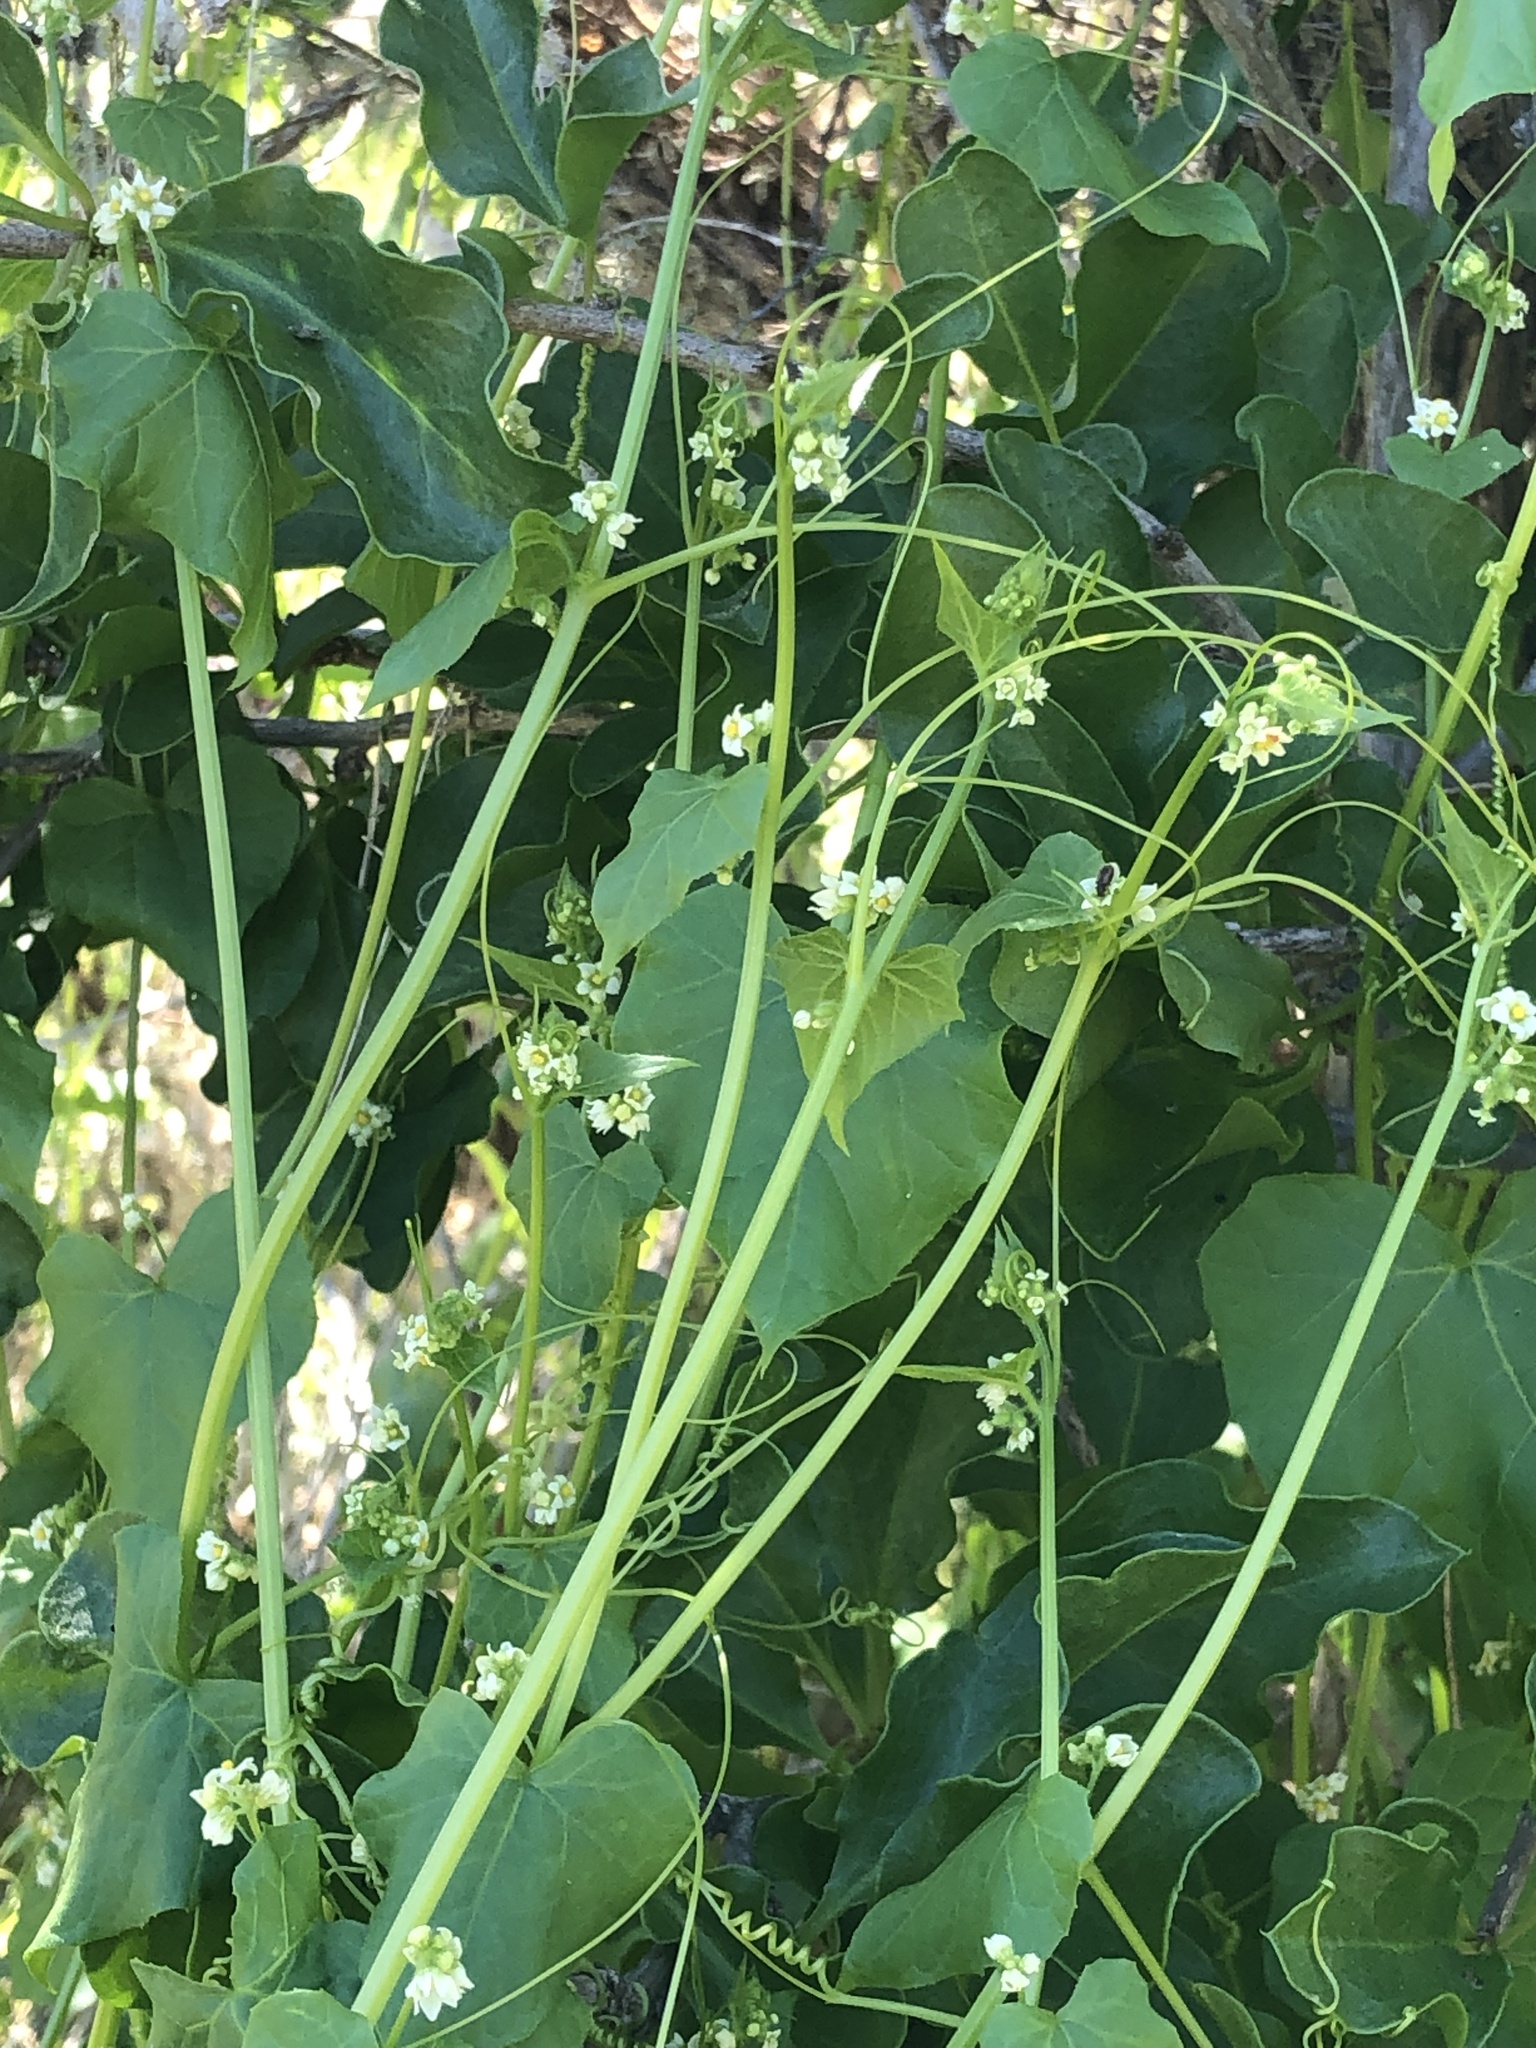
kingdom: Plantae
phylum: Tracheophyta
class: Magnoliopsida
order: Cucurbitales
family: Cucurbitaceae
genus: Sicyos
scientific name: Sicyos baderoa
